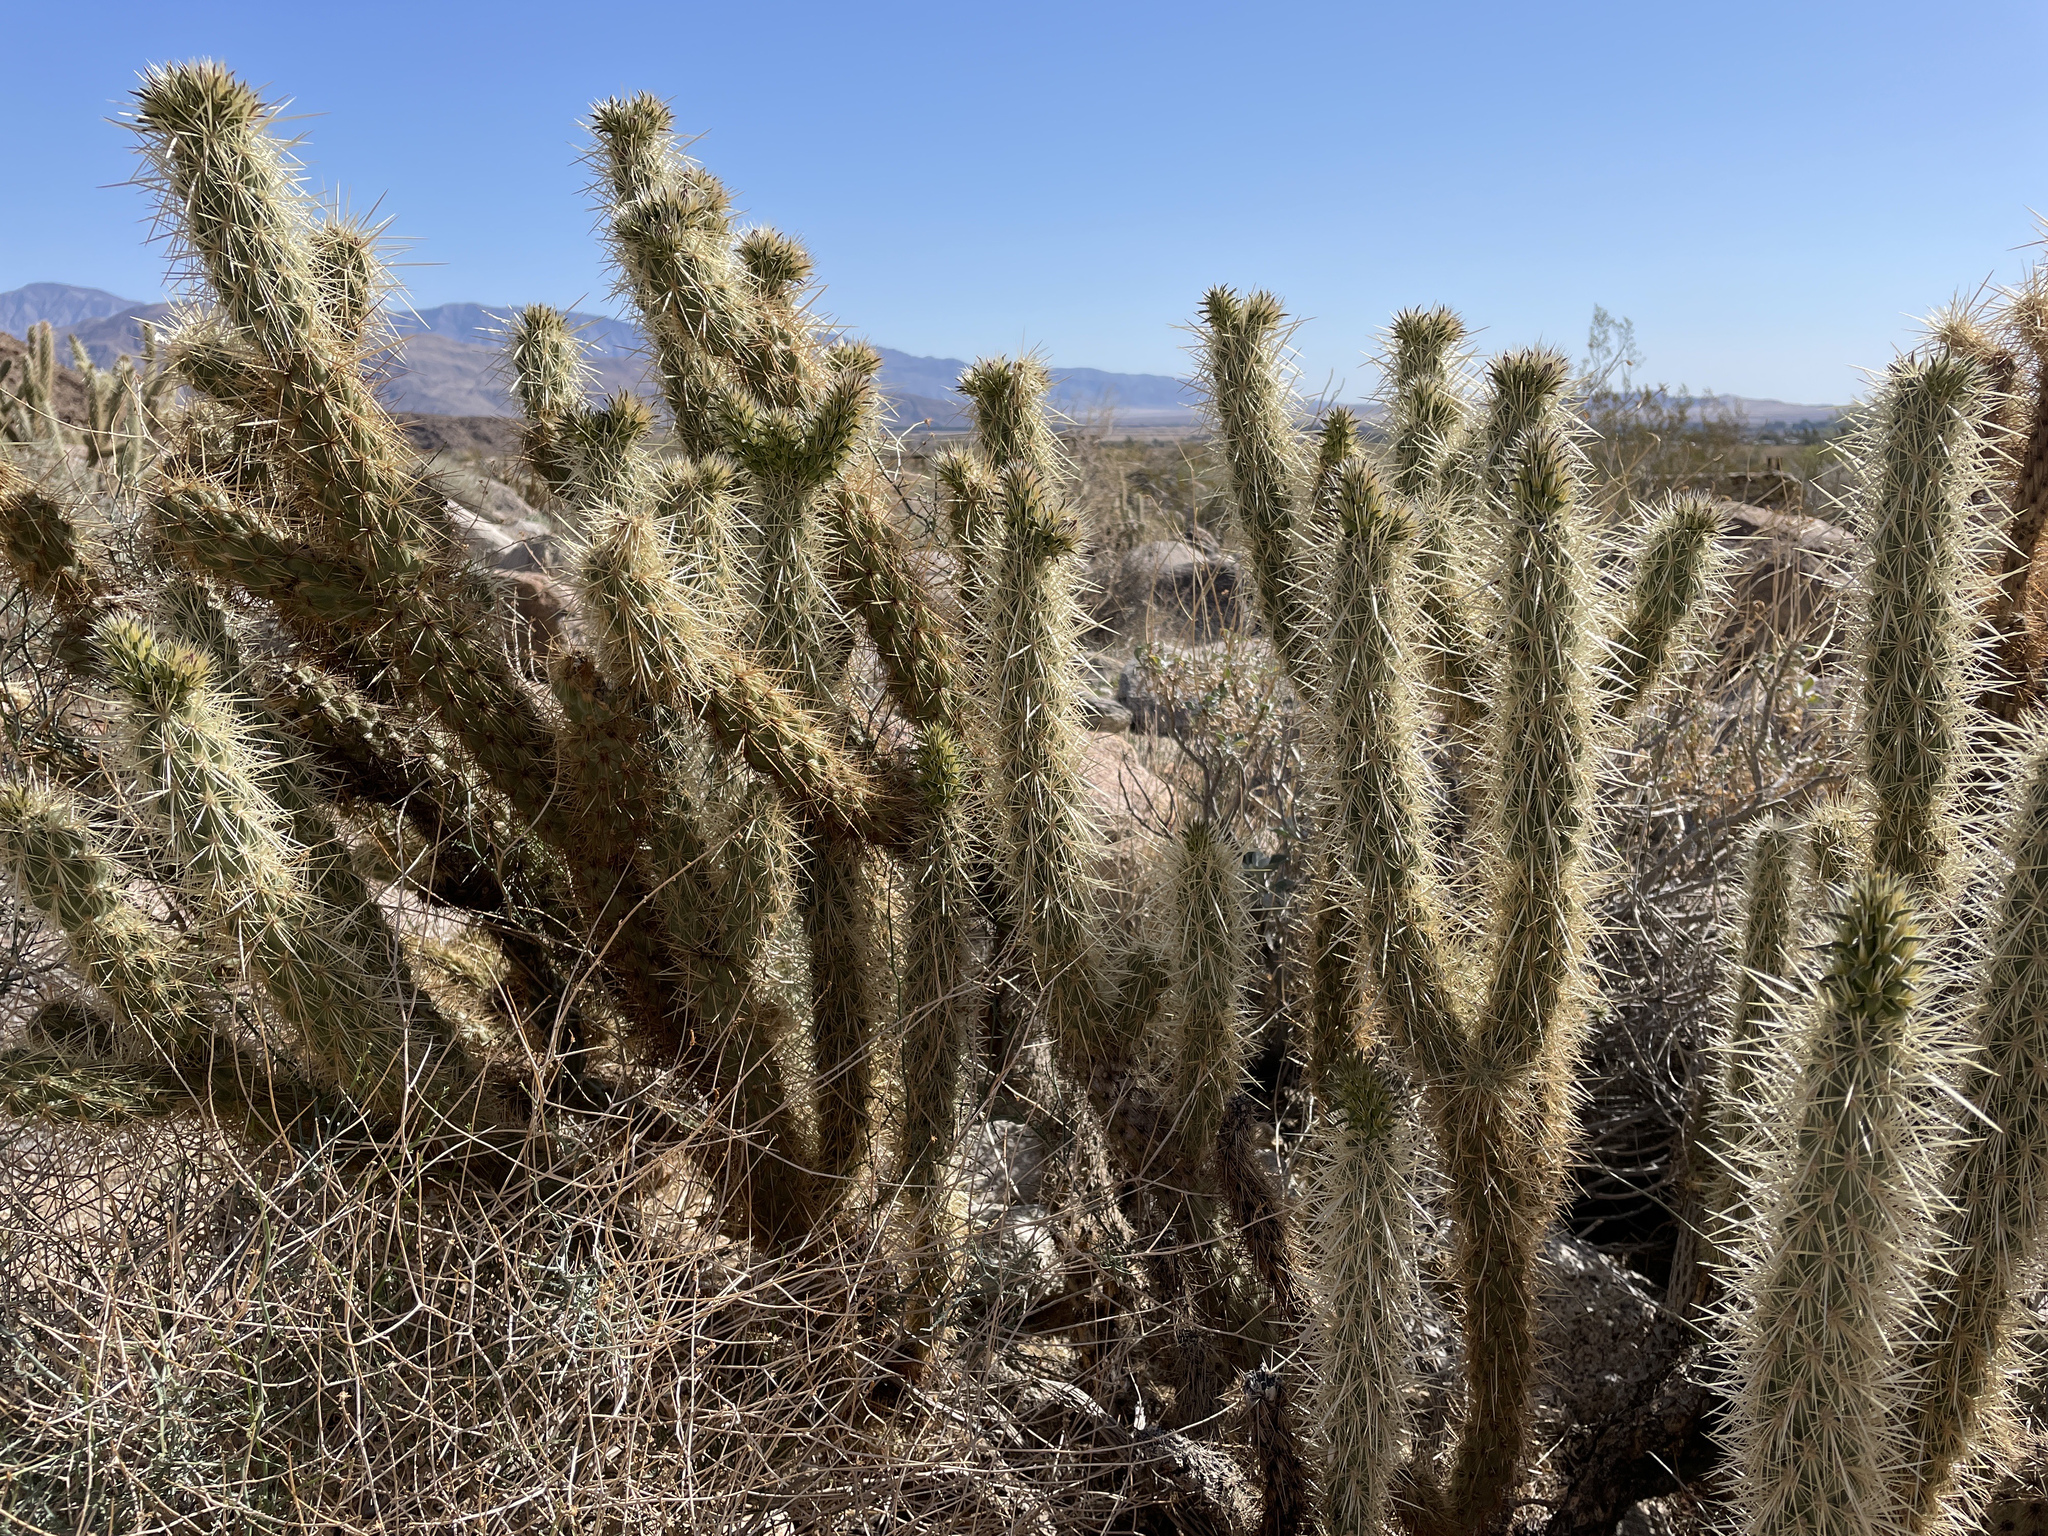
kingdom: Plantae
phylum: Tracheophyta
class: Magnoliopsida
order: Caryophyllales
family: Cactaceae
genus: Cylindropuntia
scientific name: Cylindropuntia ganderi
